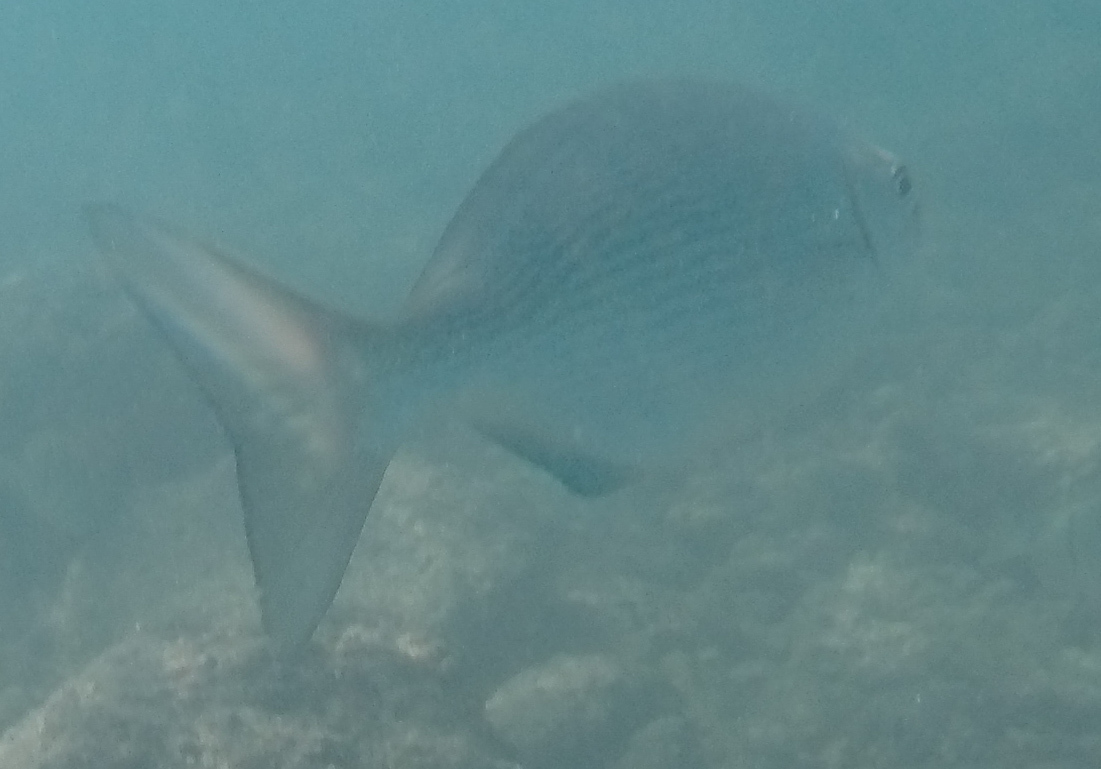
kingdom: Animalia
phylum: Chordata
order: Perciformes
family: Kyphosidae
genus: Kyphosus
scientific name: Kyphosus vaigiensis
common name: Brassy chub
